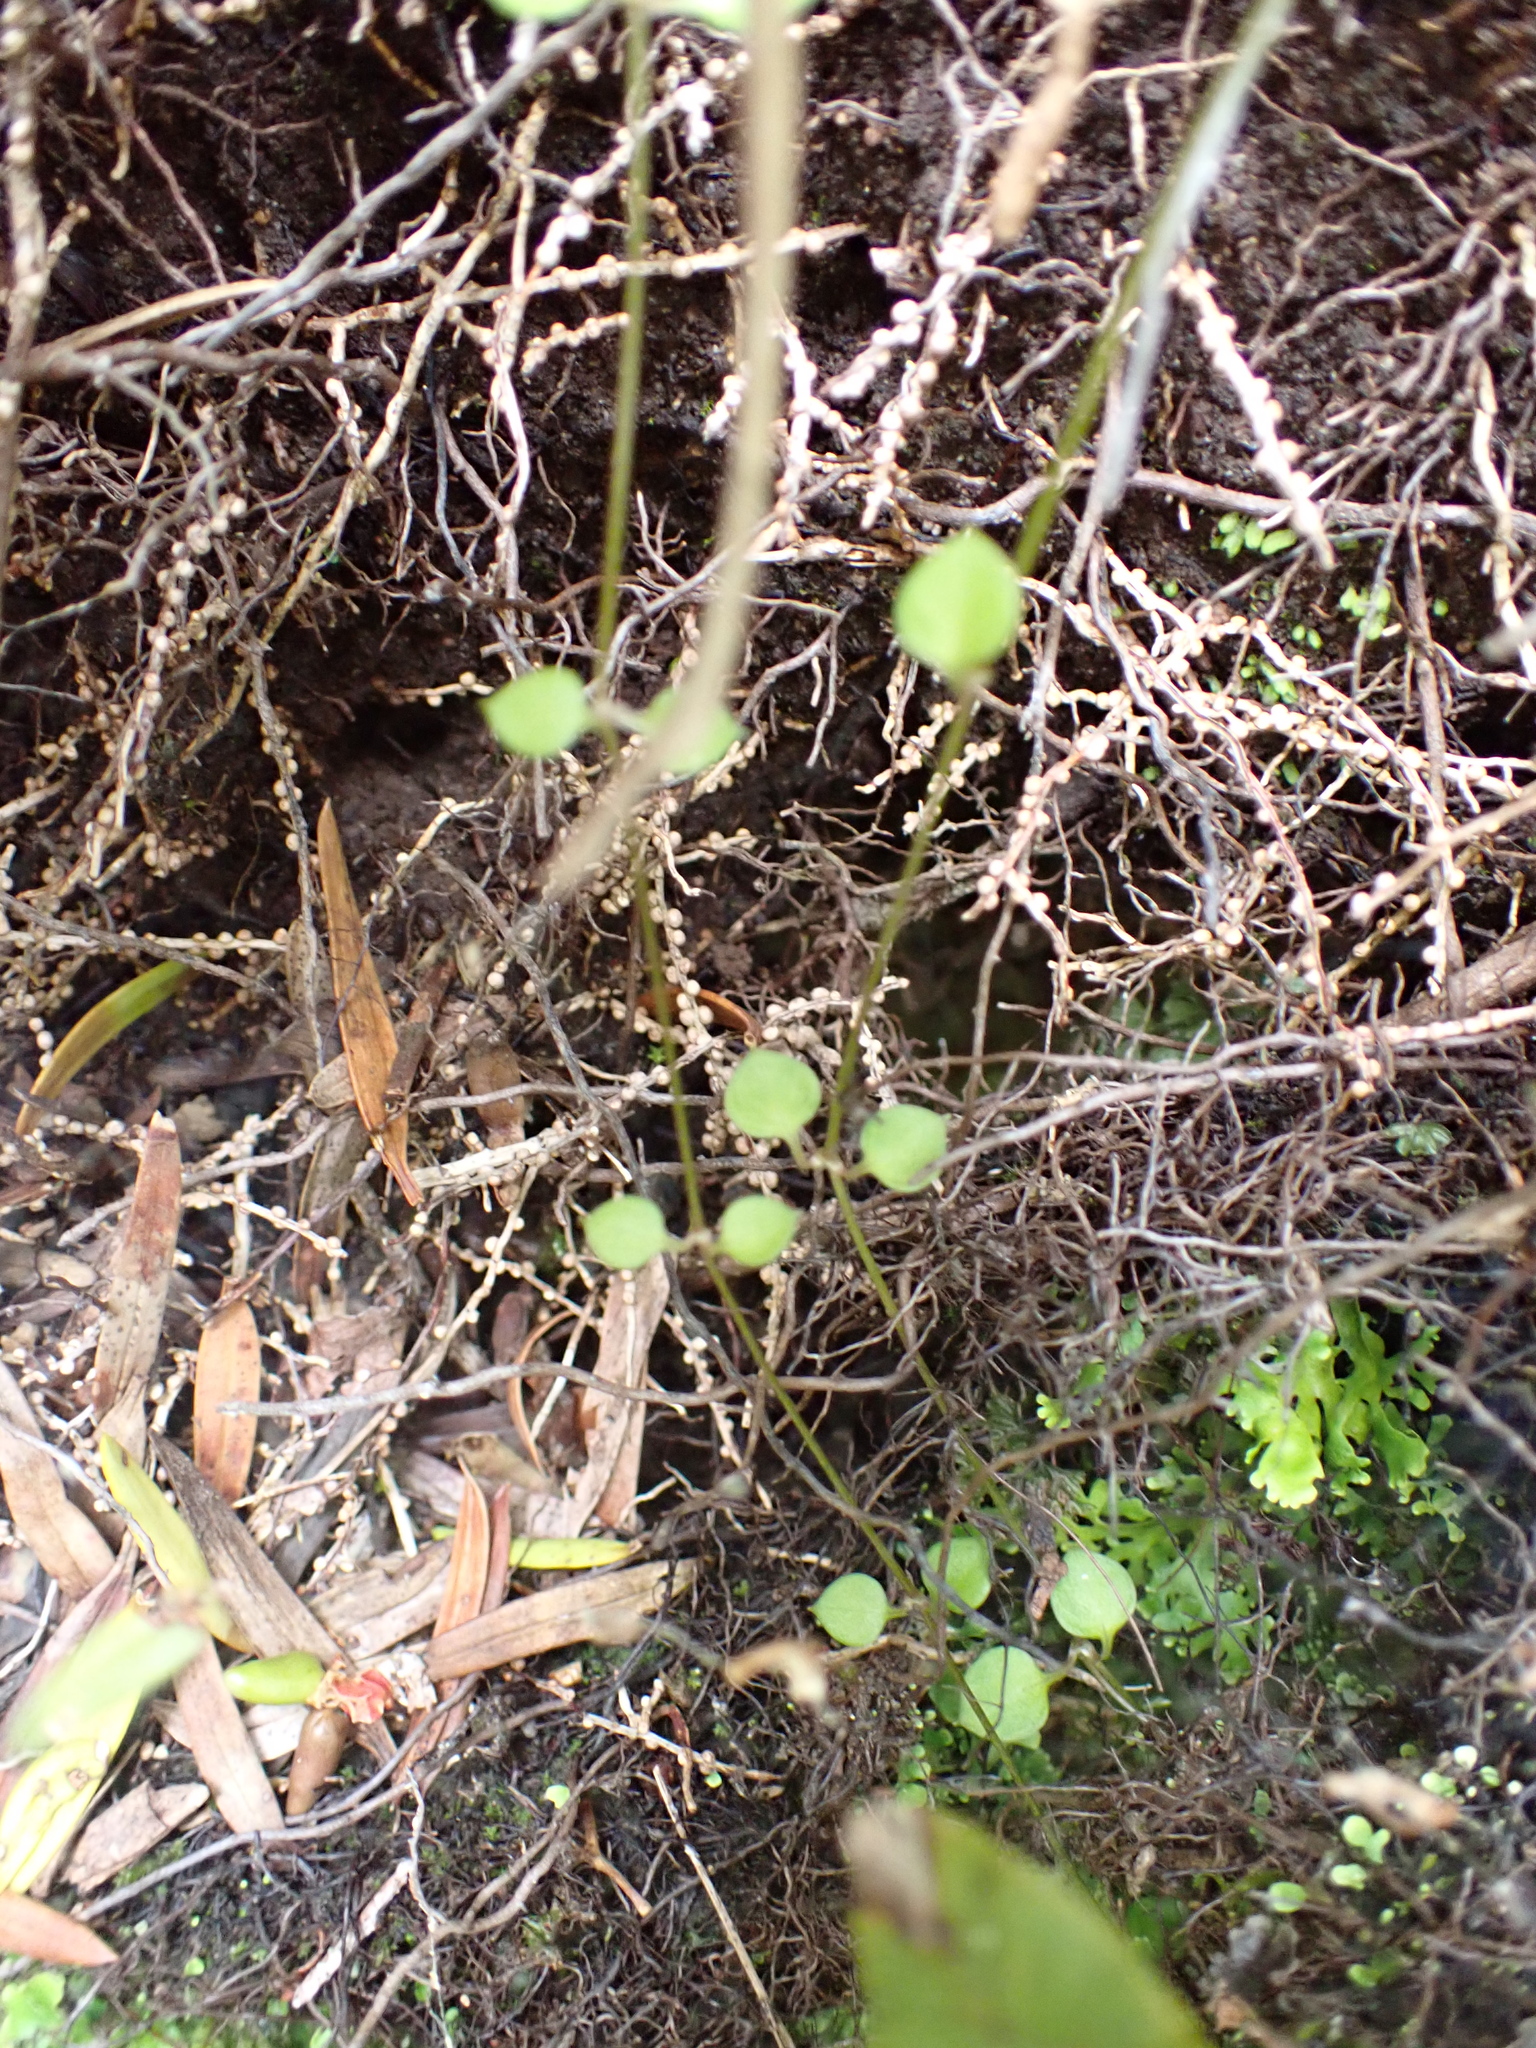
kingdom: Plantae
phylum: Tracheophyta
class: Magnoliopsida
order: Caryophyllales
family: Caryophyllaceae
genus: Stellaria
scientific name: Stellaria parviflora
